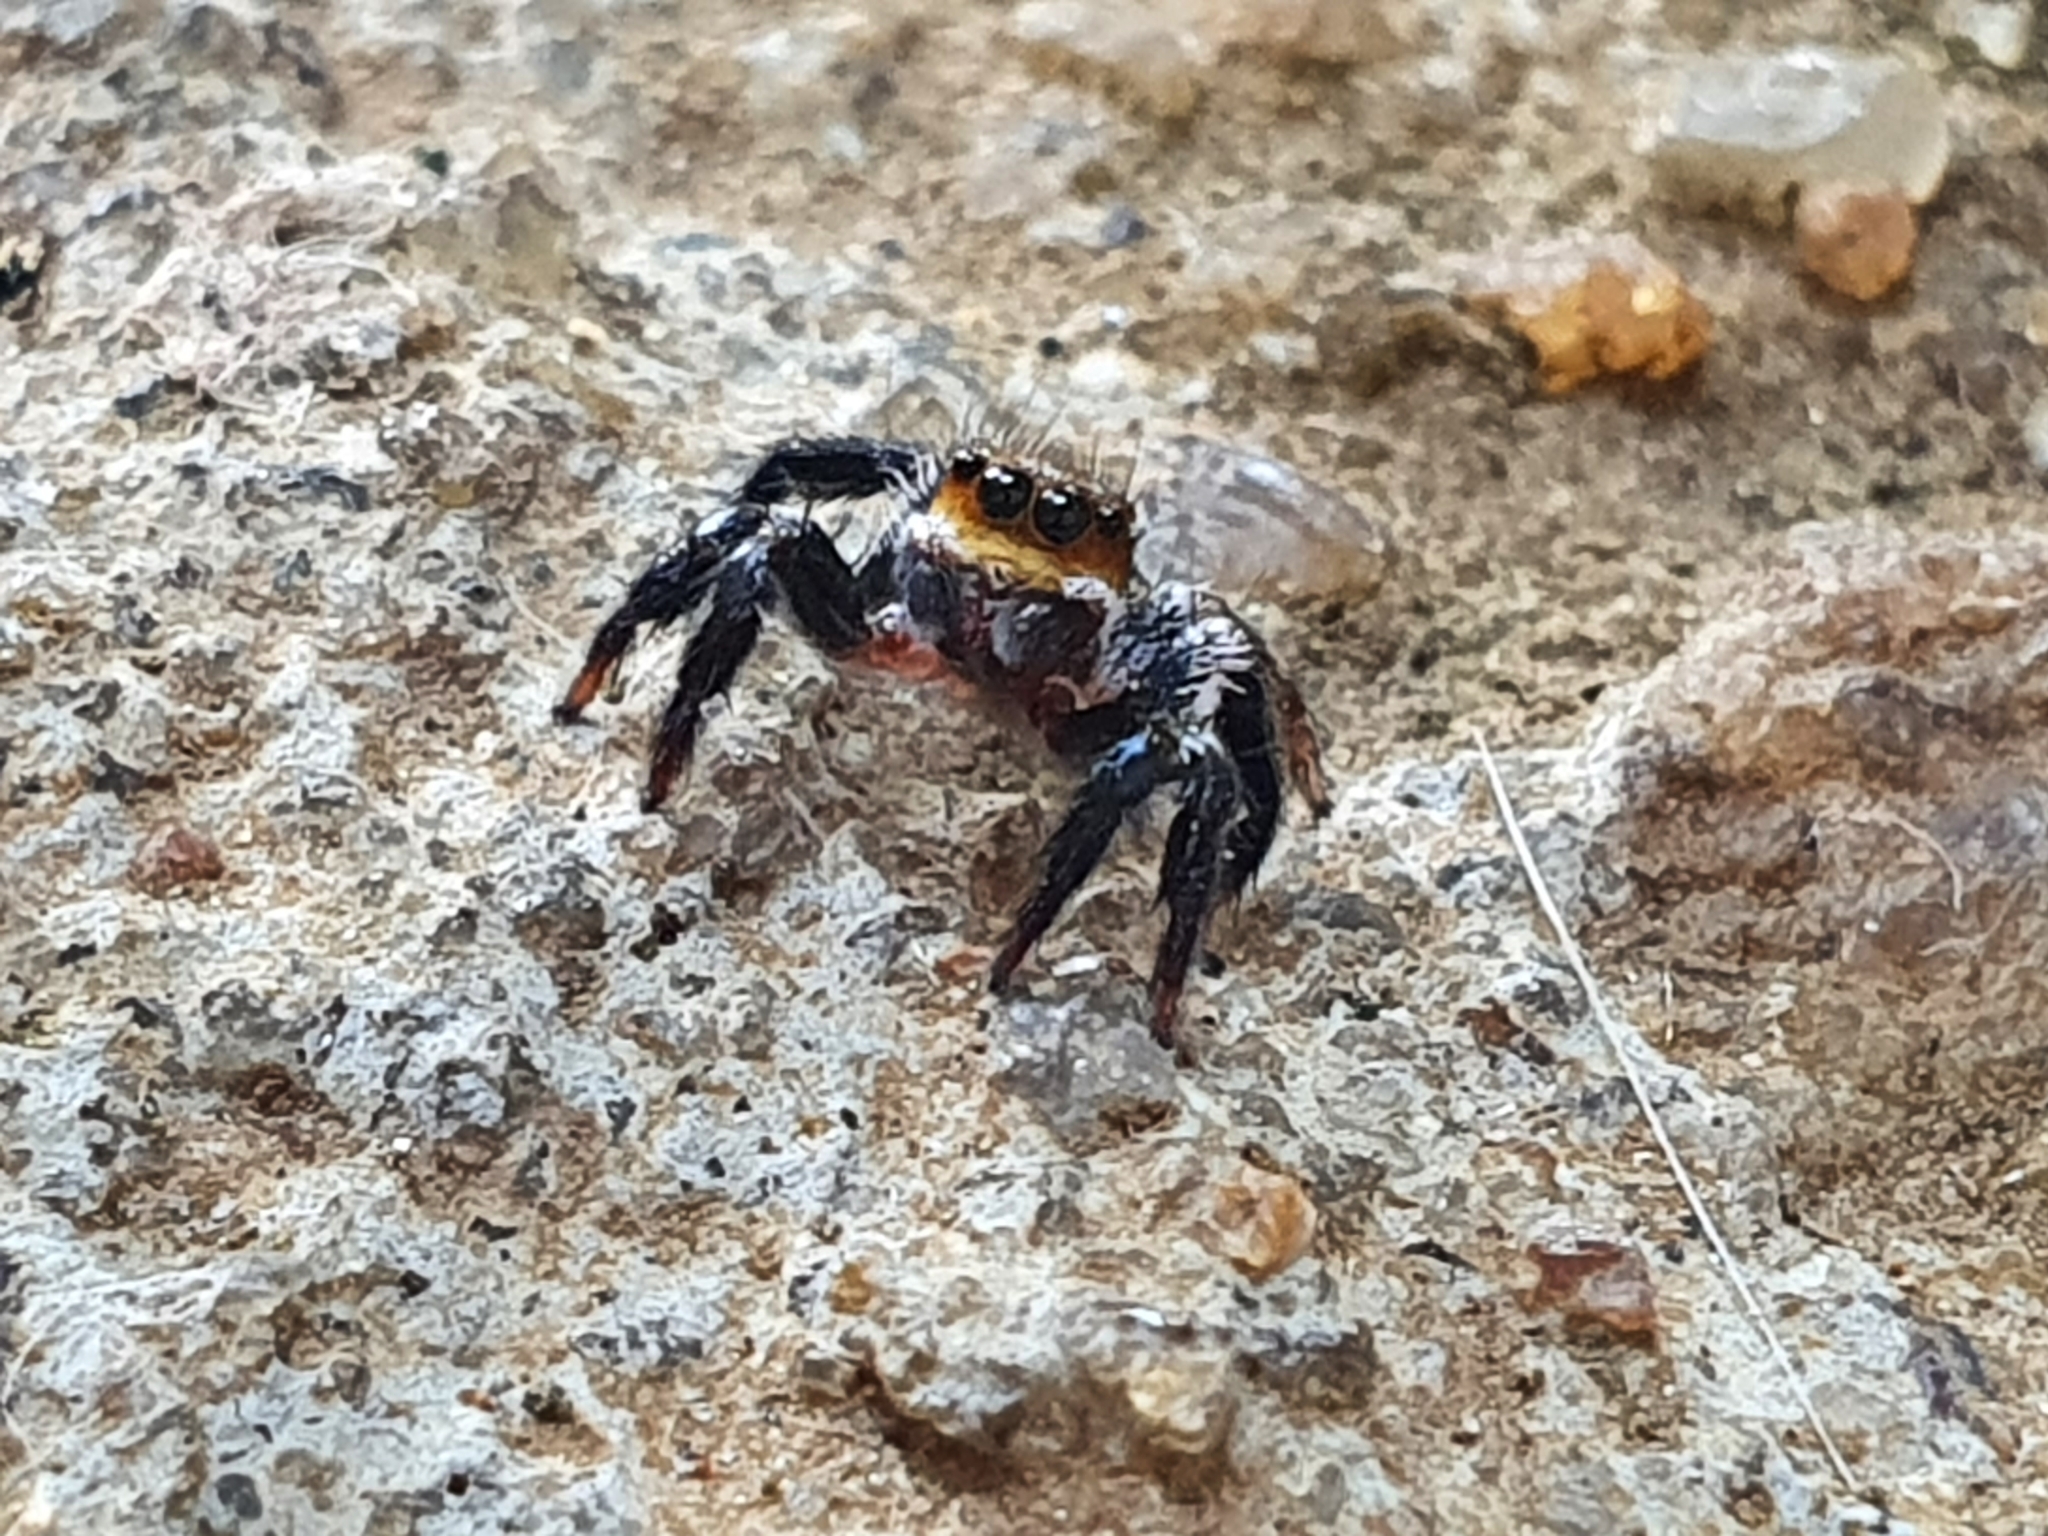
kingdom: Animalia
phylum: Arthropoda
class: Arachnida
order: Araneae
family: Salticidae
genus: Corythalia
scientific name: Corythalia conferta
